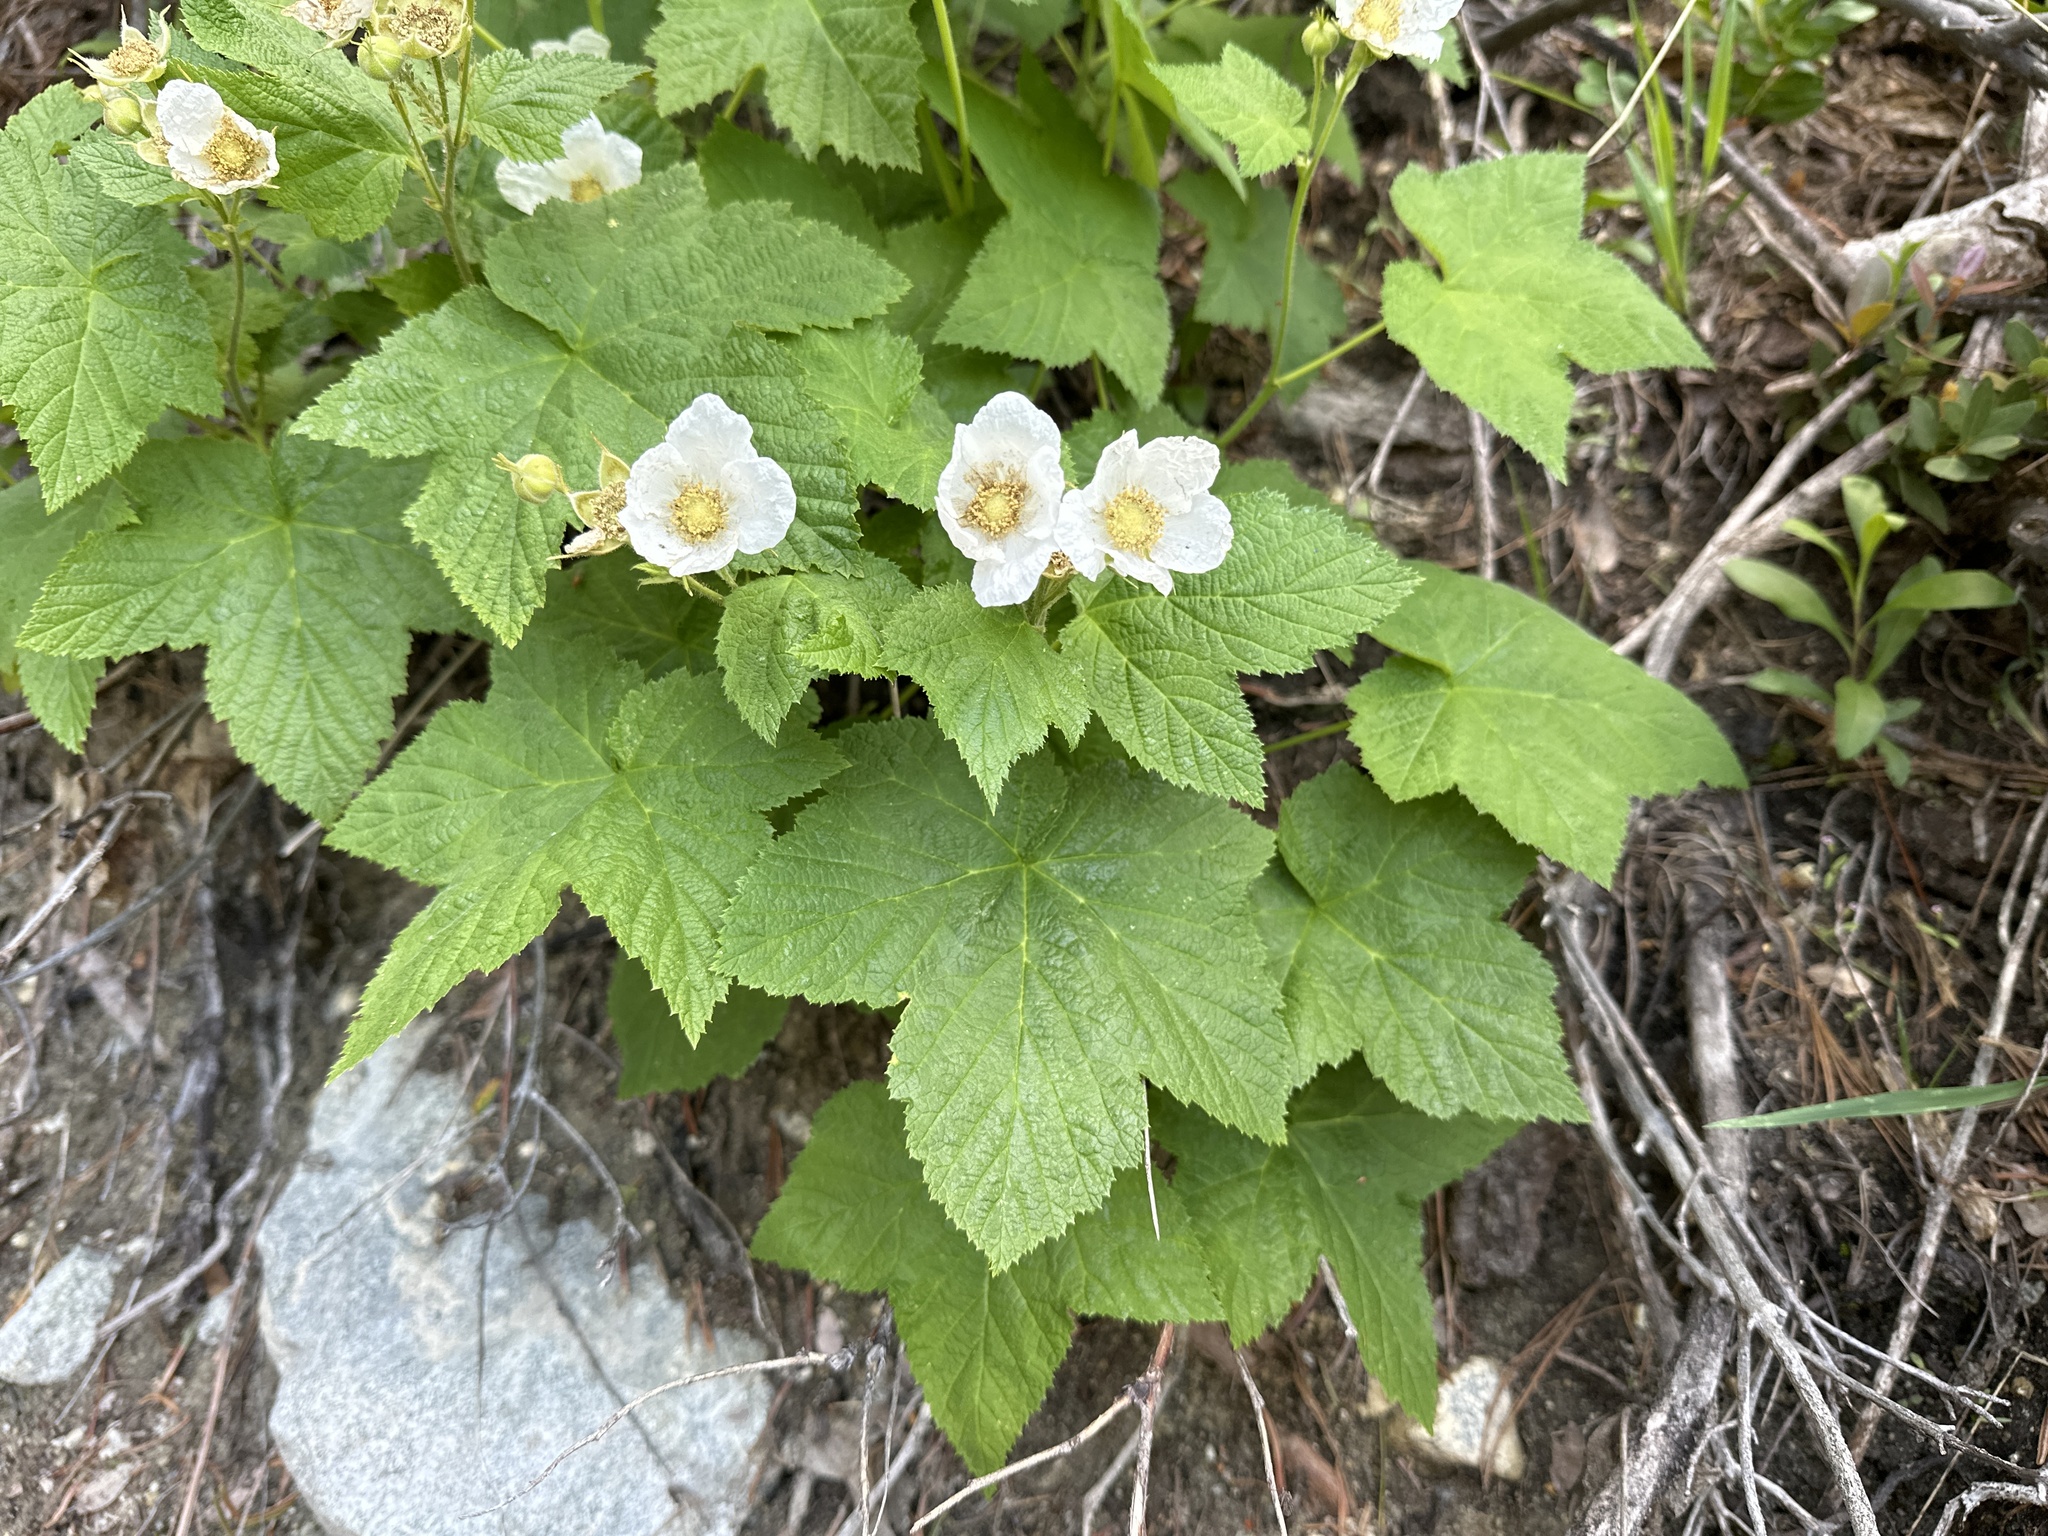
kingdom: Plantae
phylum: Tracheophyta
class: Magnoliopsida
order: Rosales
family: Rosaceae
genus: Rubus
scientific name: Rubus parviflorus
